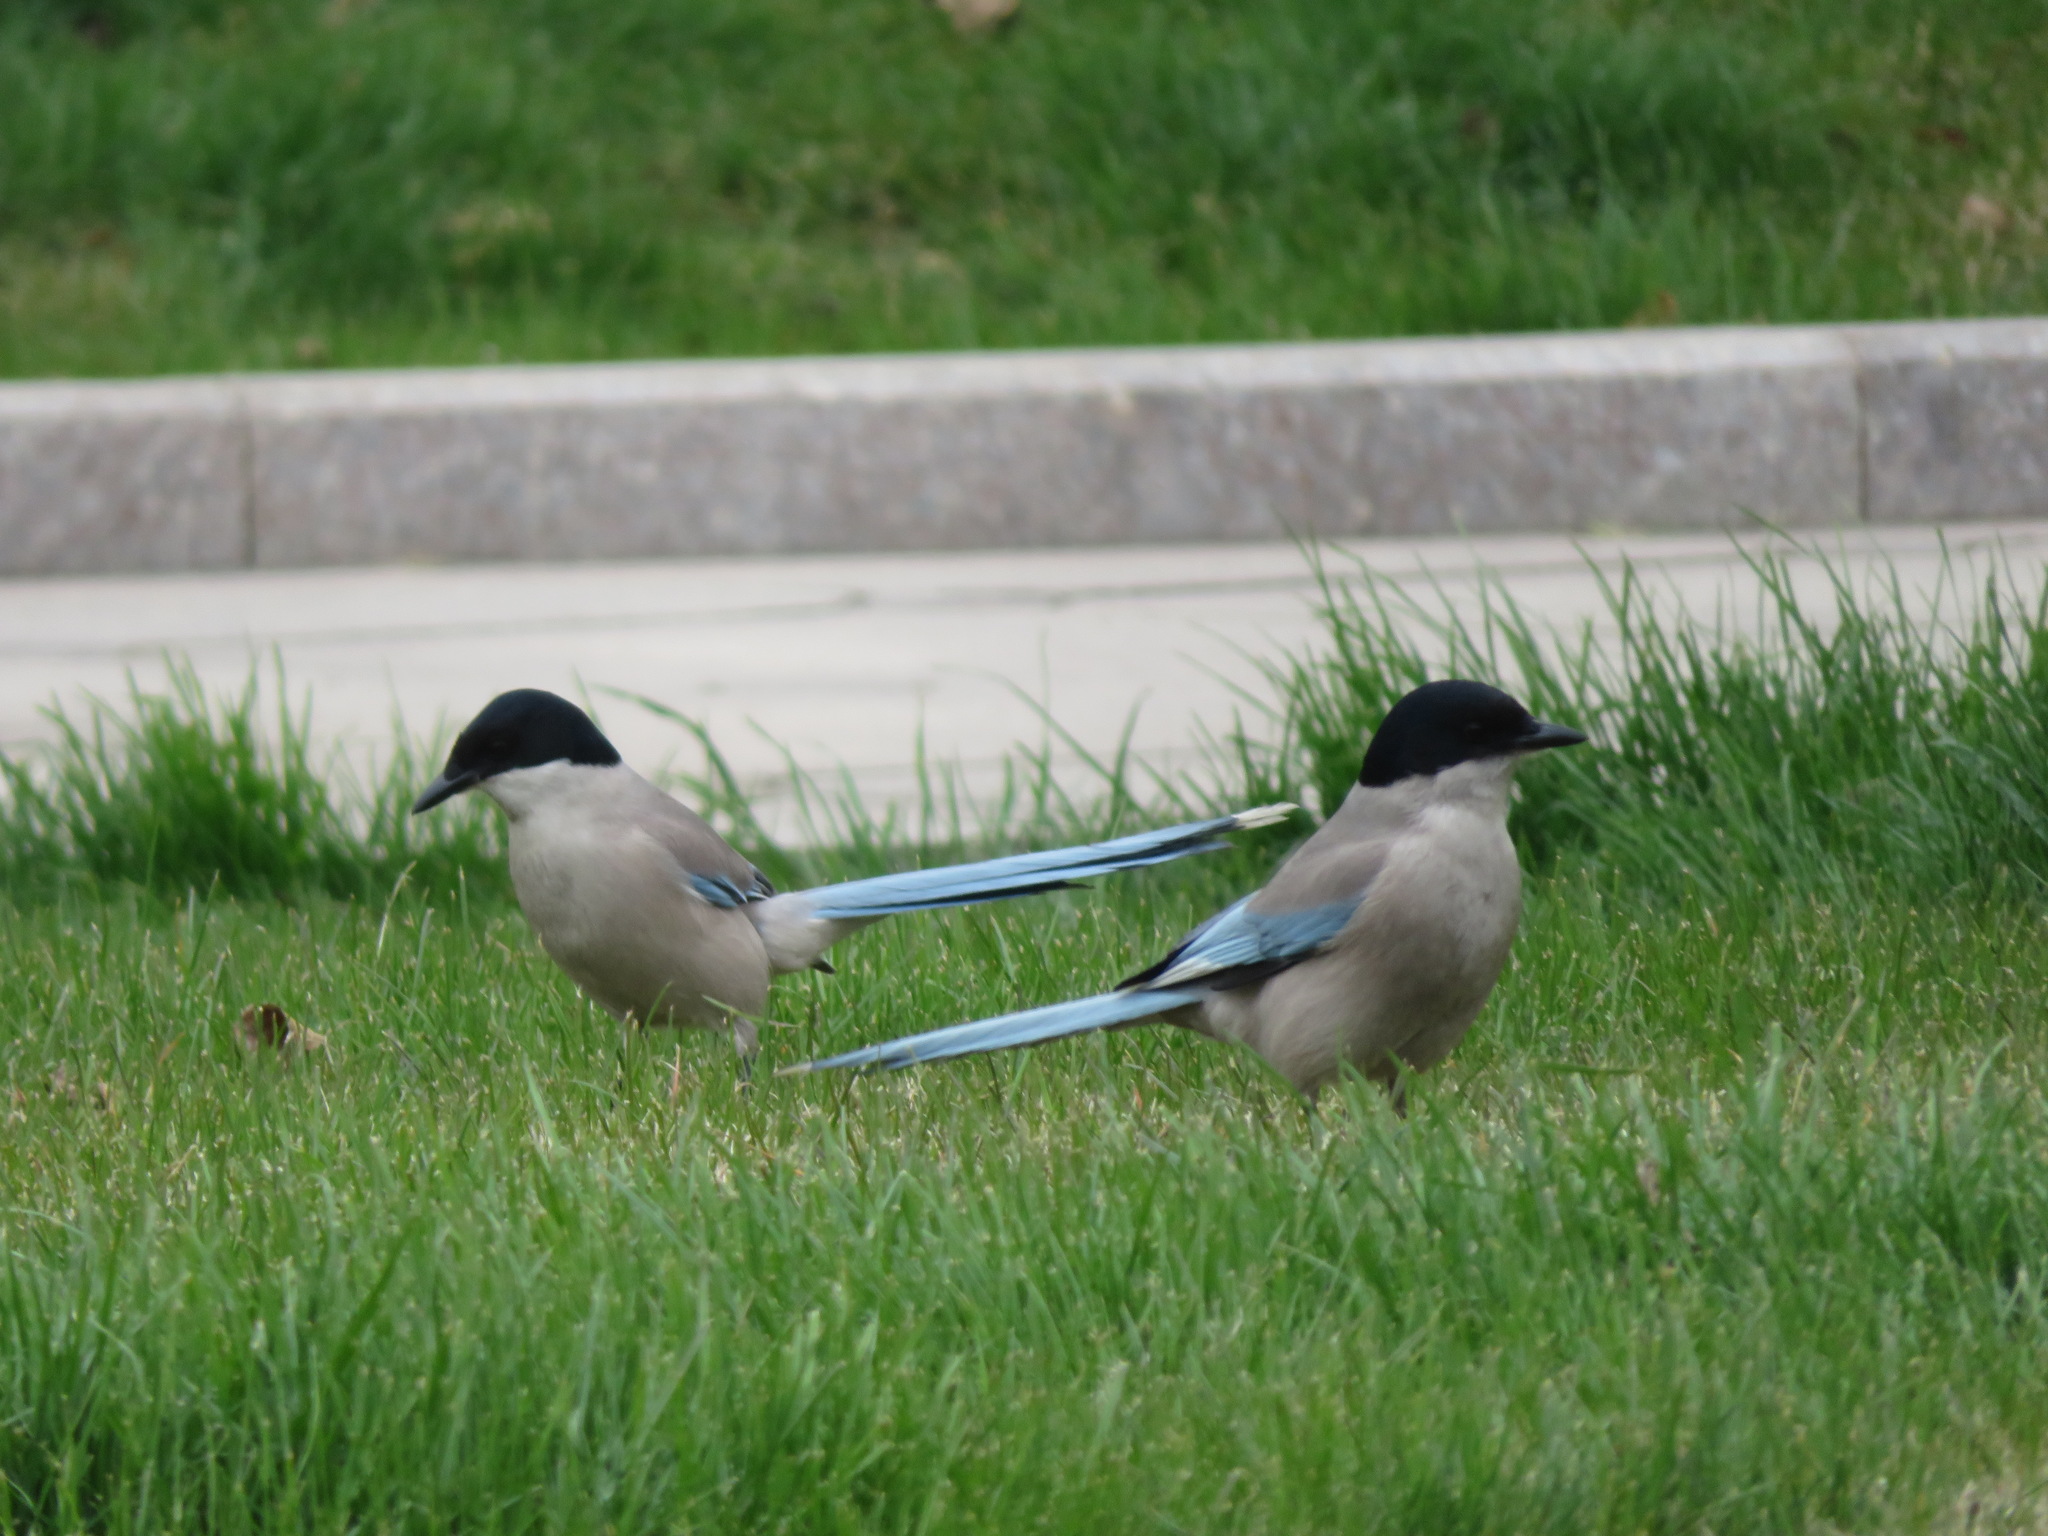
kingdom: Animalia
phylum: Chordata
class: Aves
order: Passeriformes
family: Corvidae
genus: Cyanopica
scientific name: Cyanopica cyanus
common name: Azure-winged magpie
